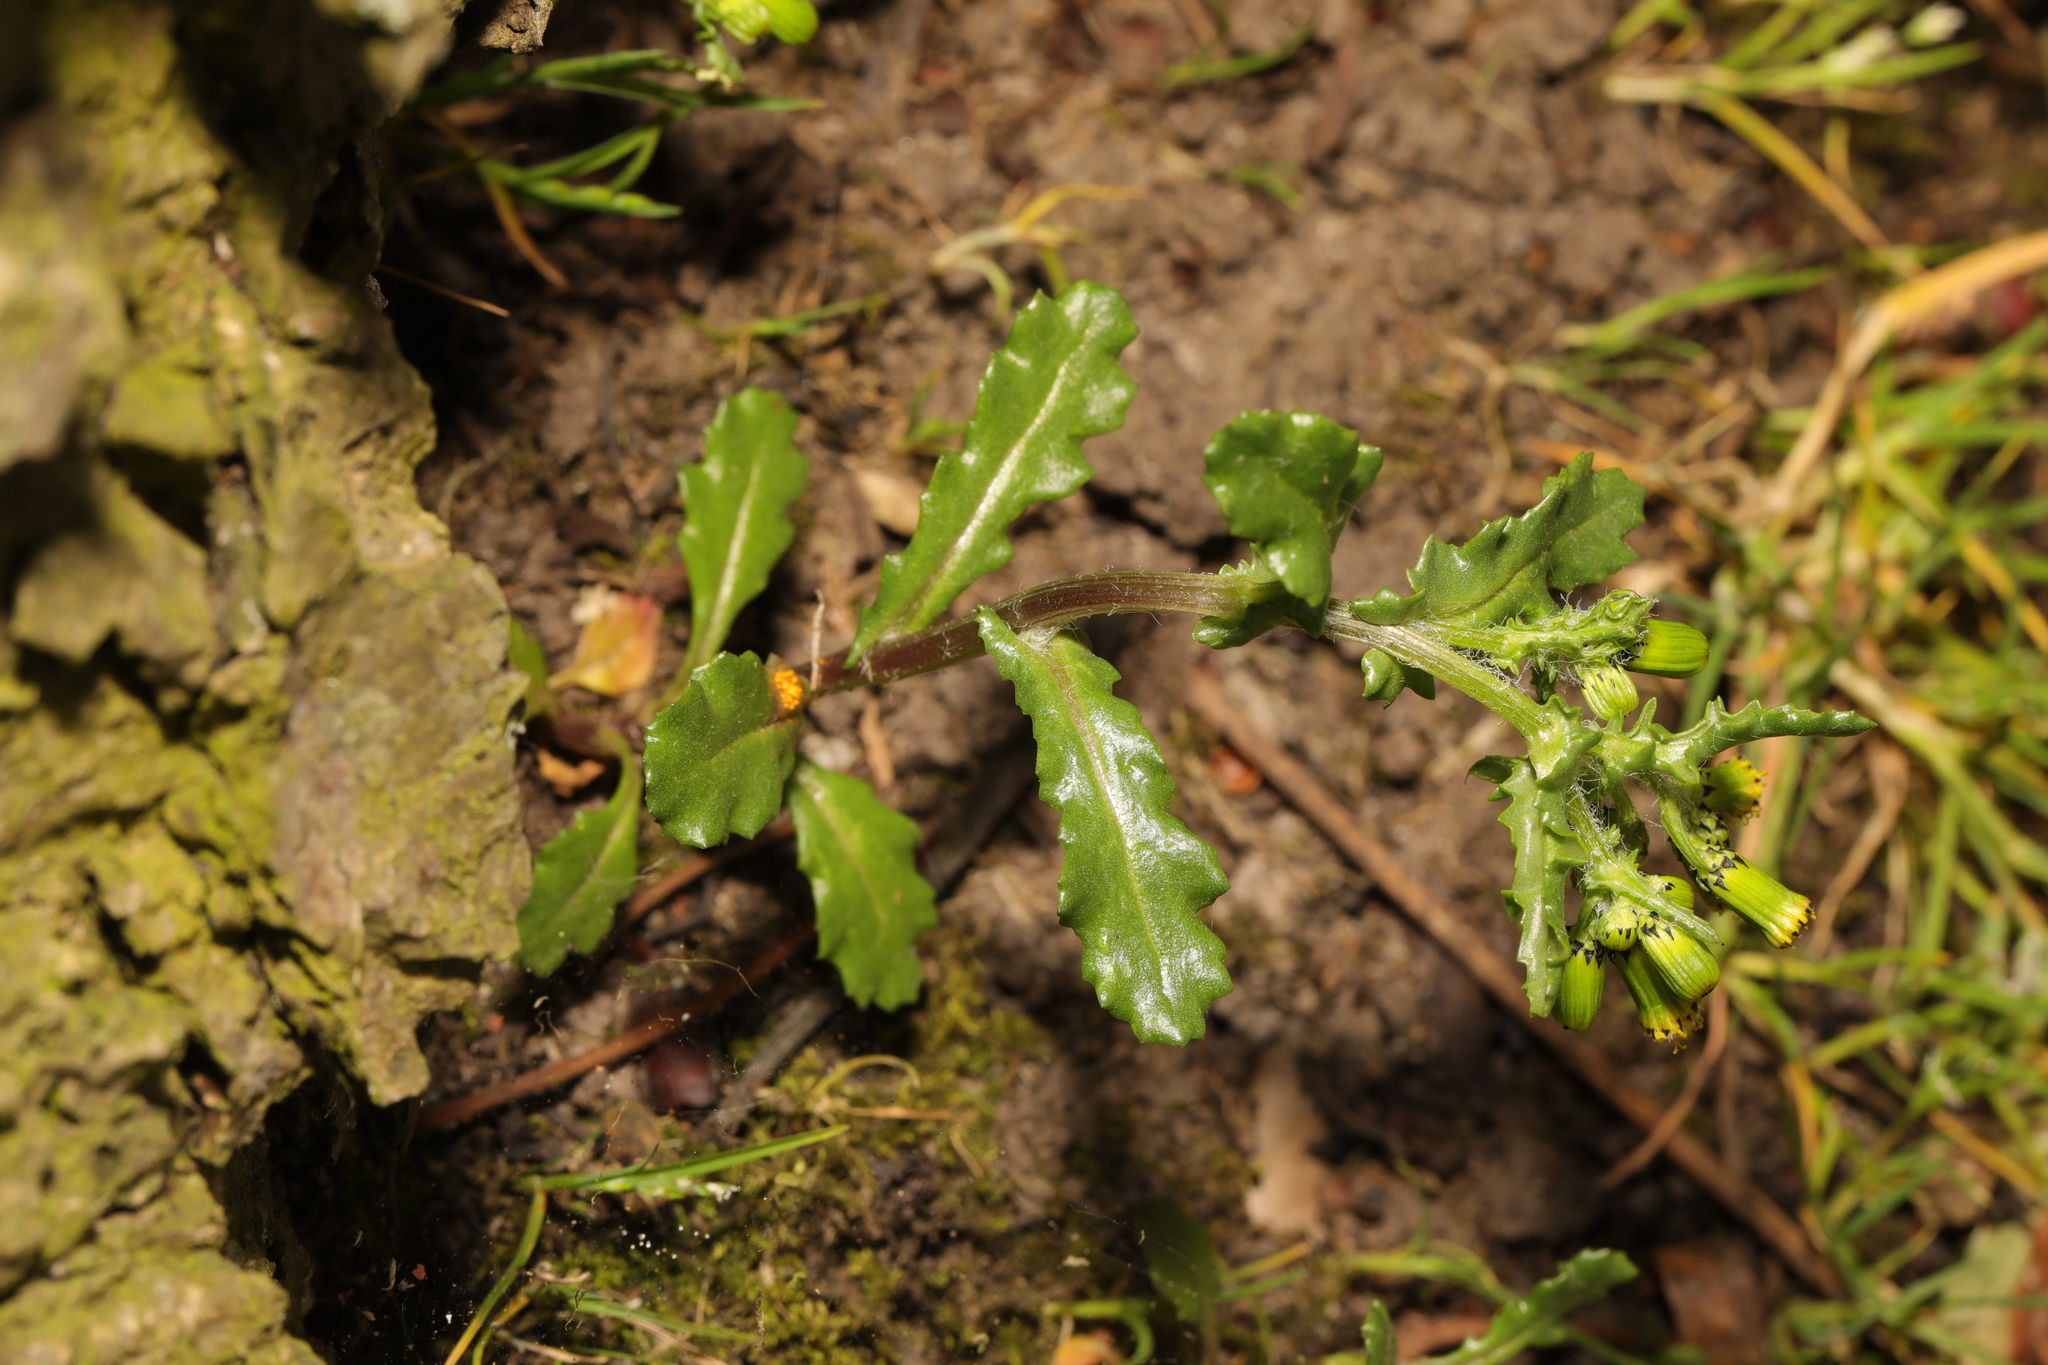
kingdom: Plantae
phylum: Tracheophyta
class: Magnoliopsida
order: Asterales
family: Asteraceae
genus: Senecio
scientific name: Senecio vulgaris
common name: Old-man-in-the-spring
